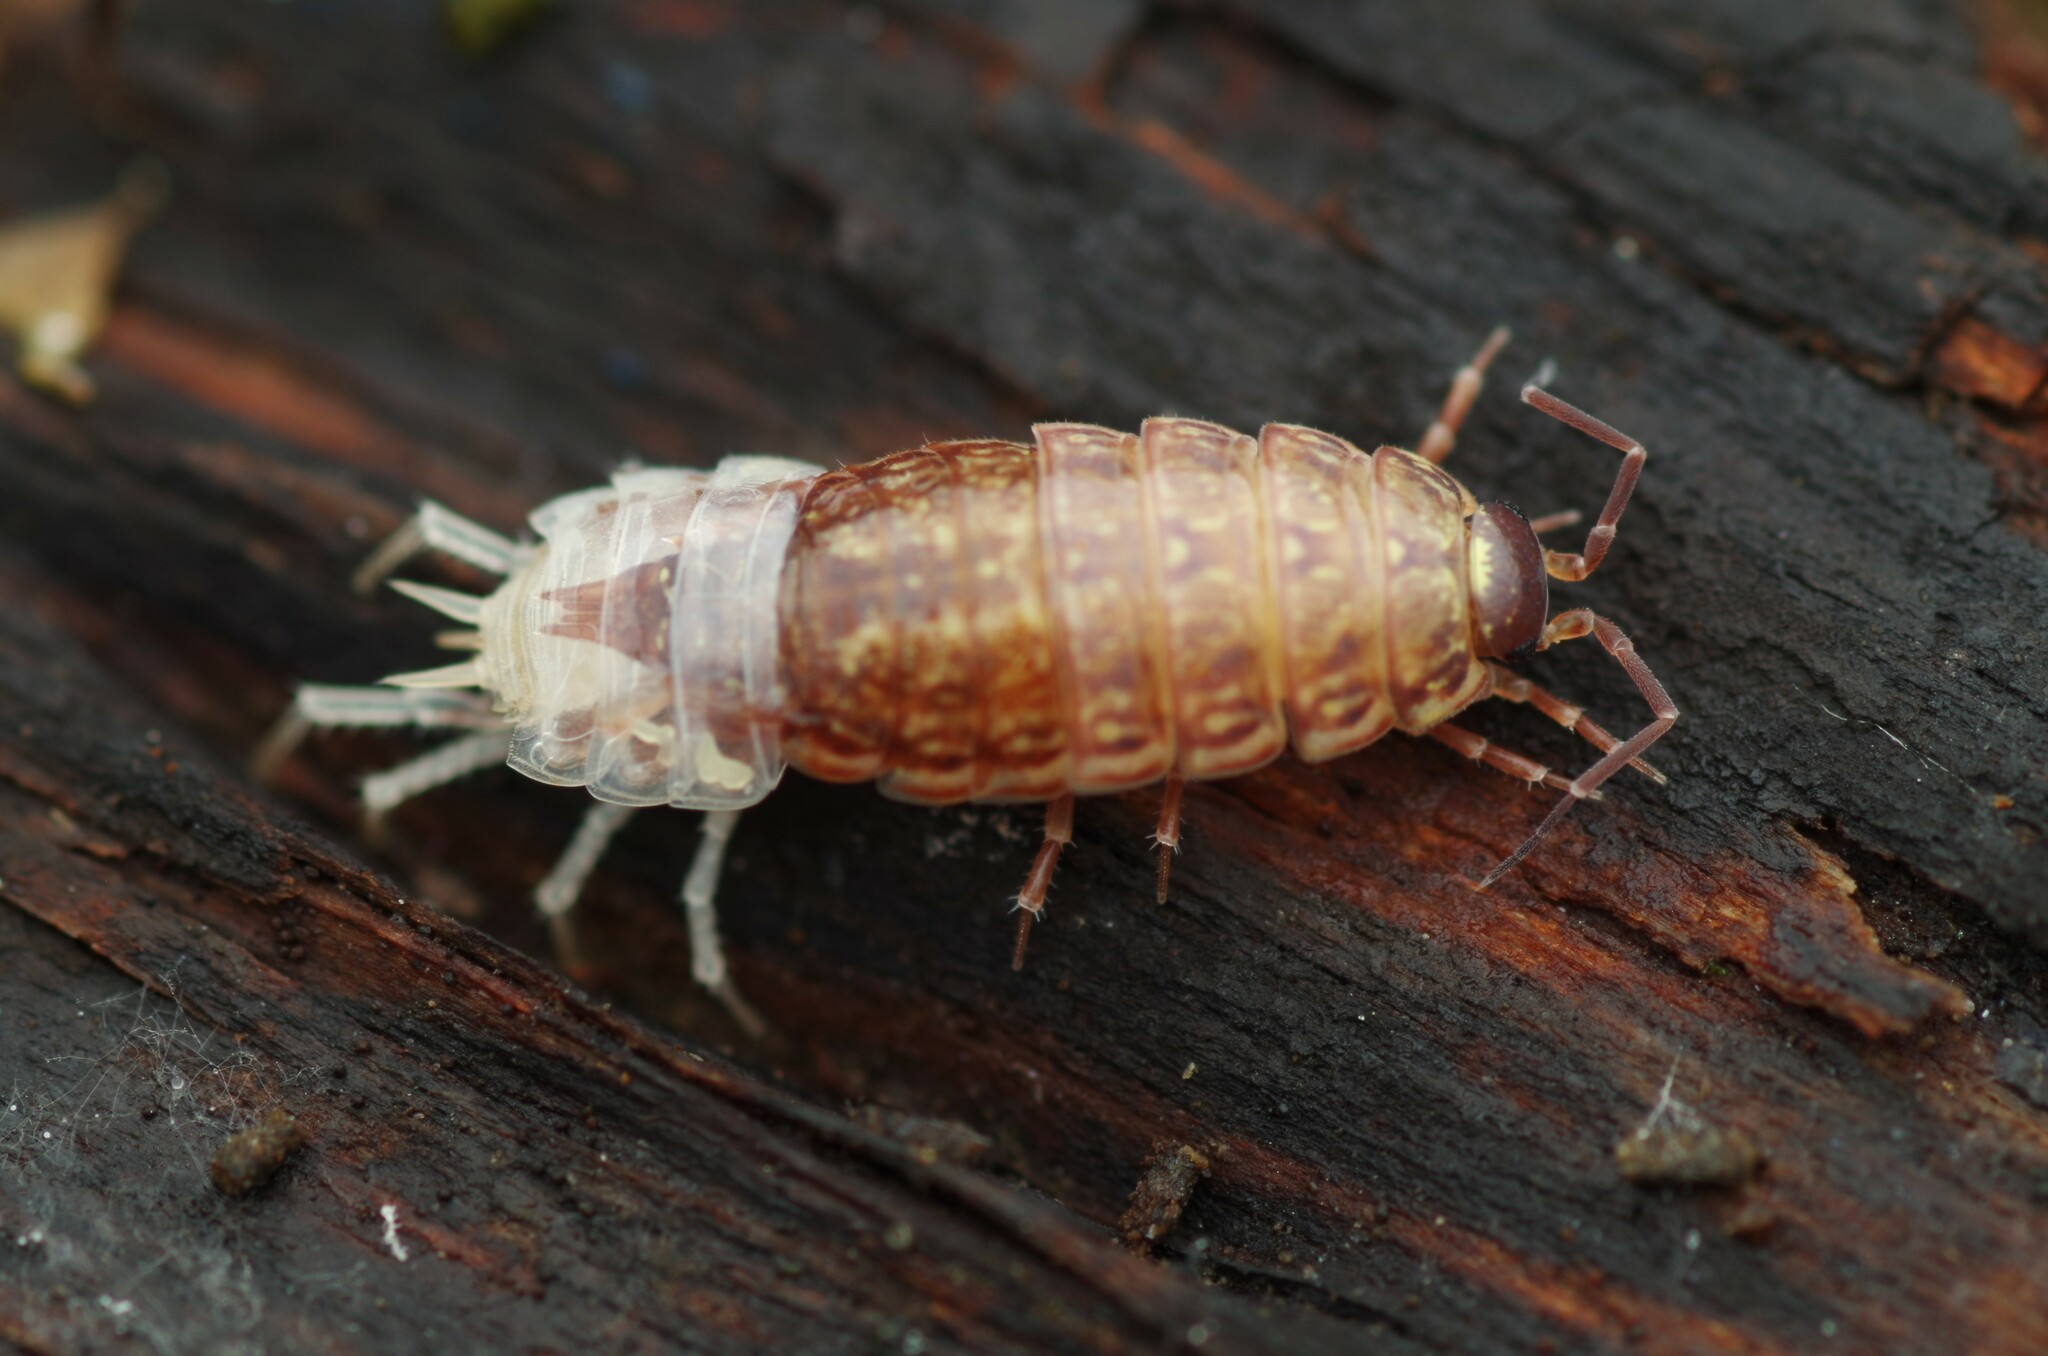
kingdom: Animalia
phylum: Arthropoda
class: Malacostraca
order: Isopoda
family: Philosciidae
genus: Philoscia
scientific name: Philoscia muscorum
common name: Common striped woodlouse
